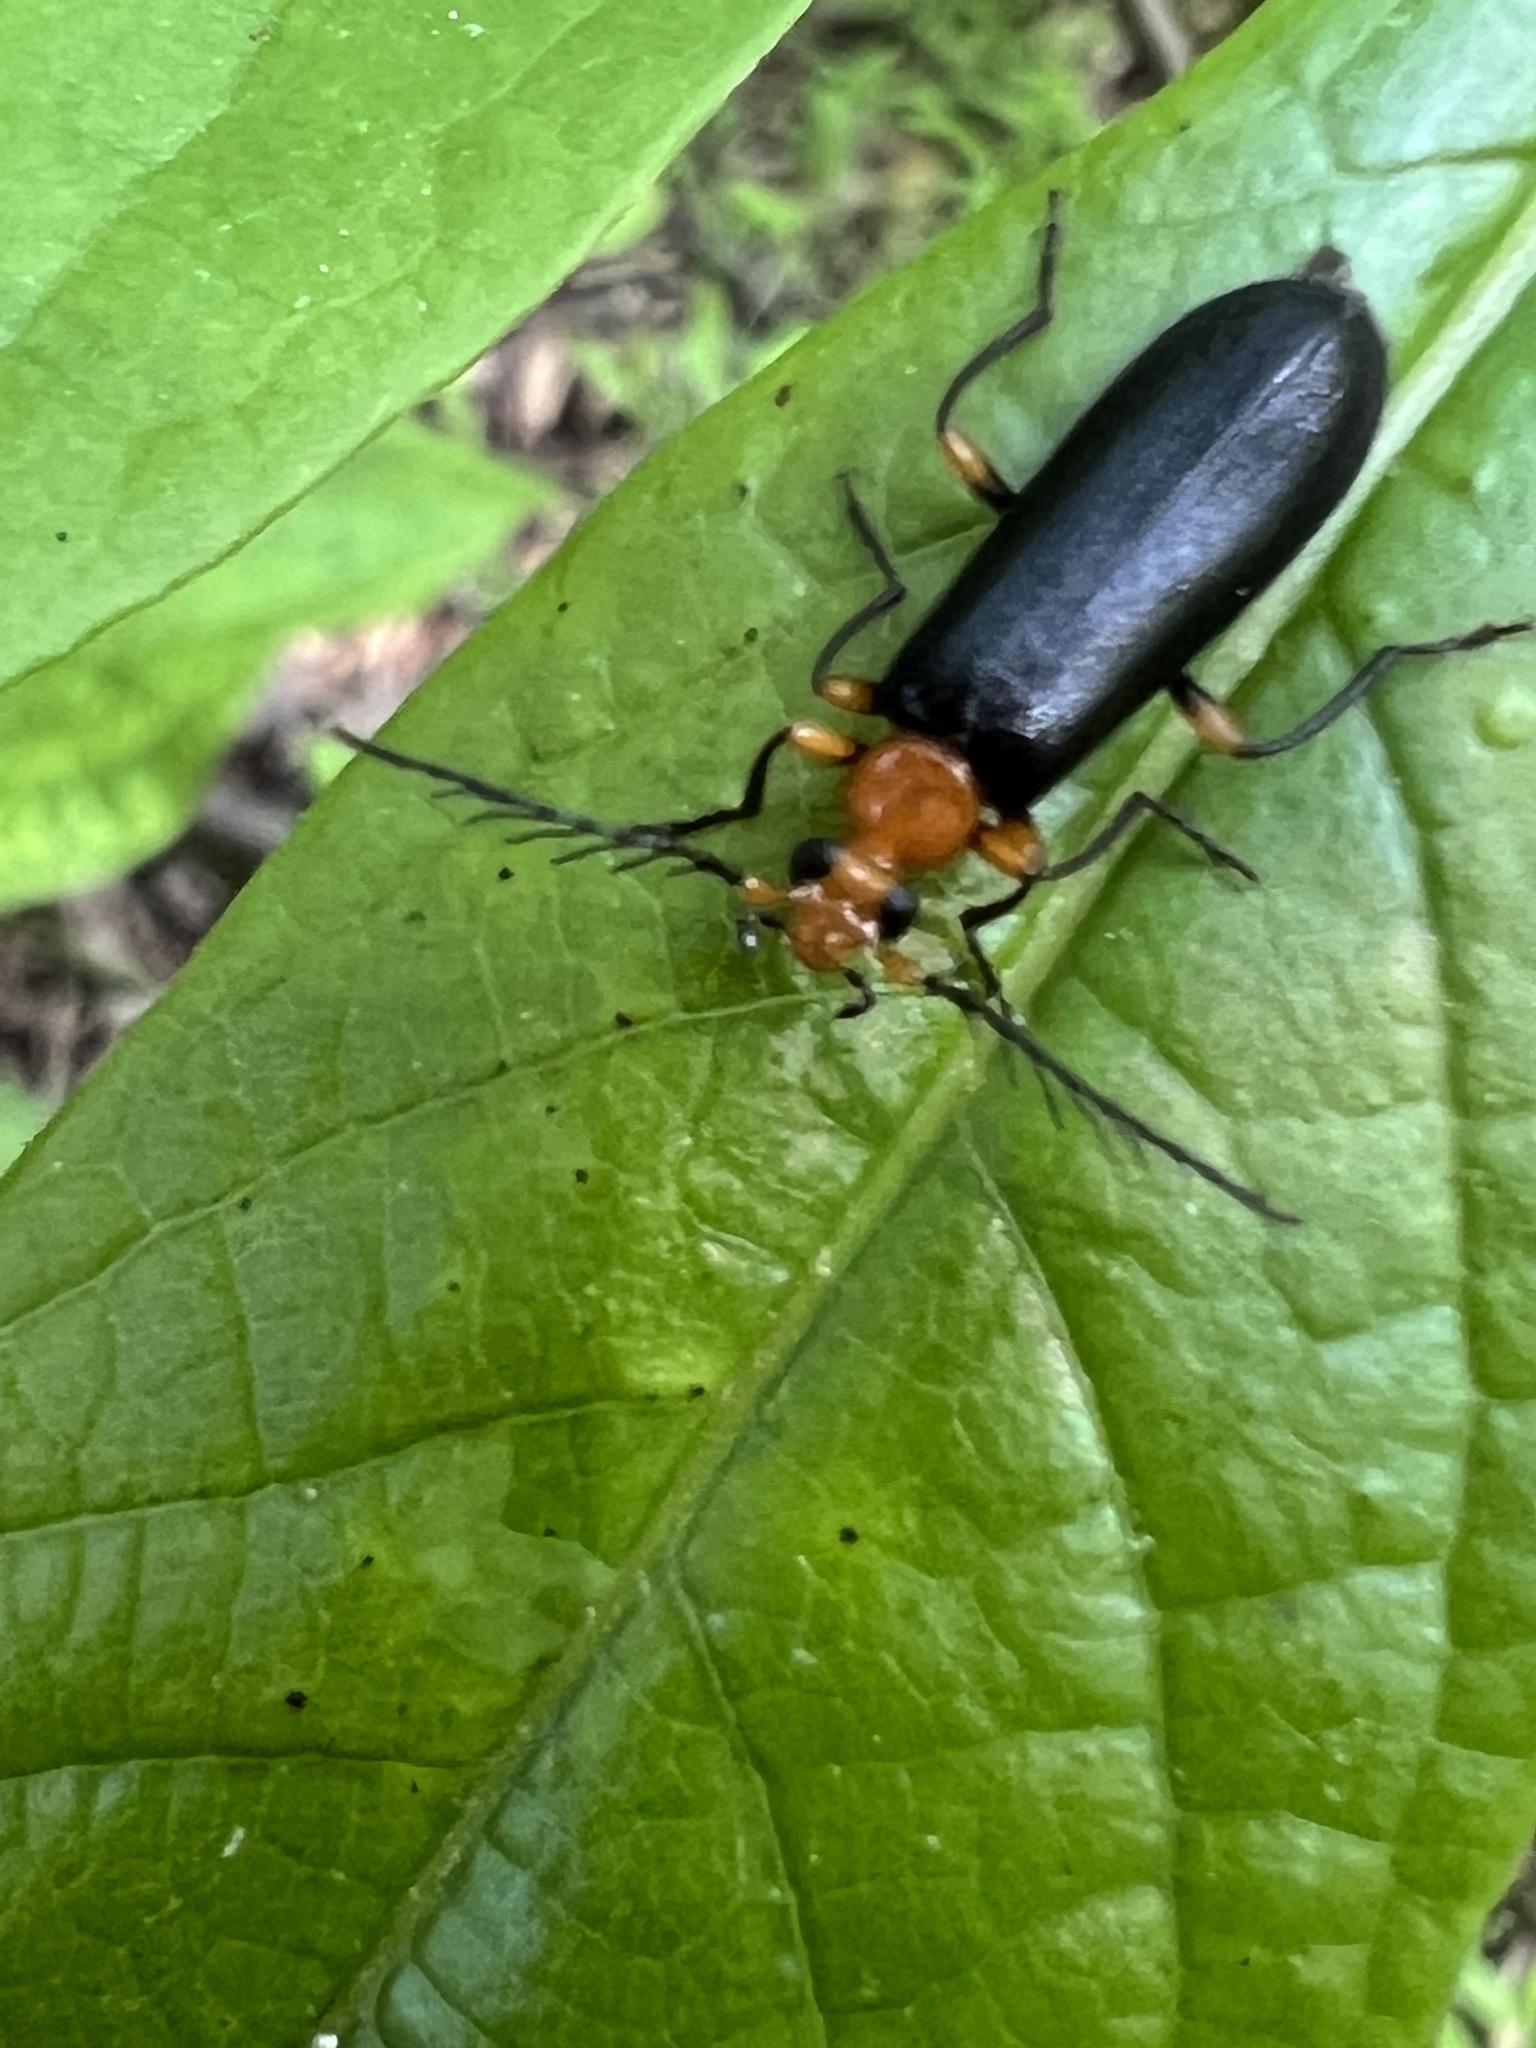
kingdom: Animalia
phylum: Arthropoda
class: Insecta
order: Coleoptera
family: Pyrochroidae
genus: Neopyrochroa
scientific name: Neopyrochroa femoralis
